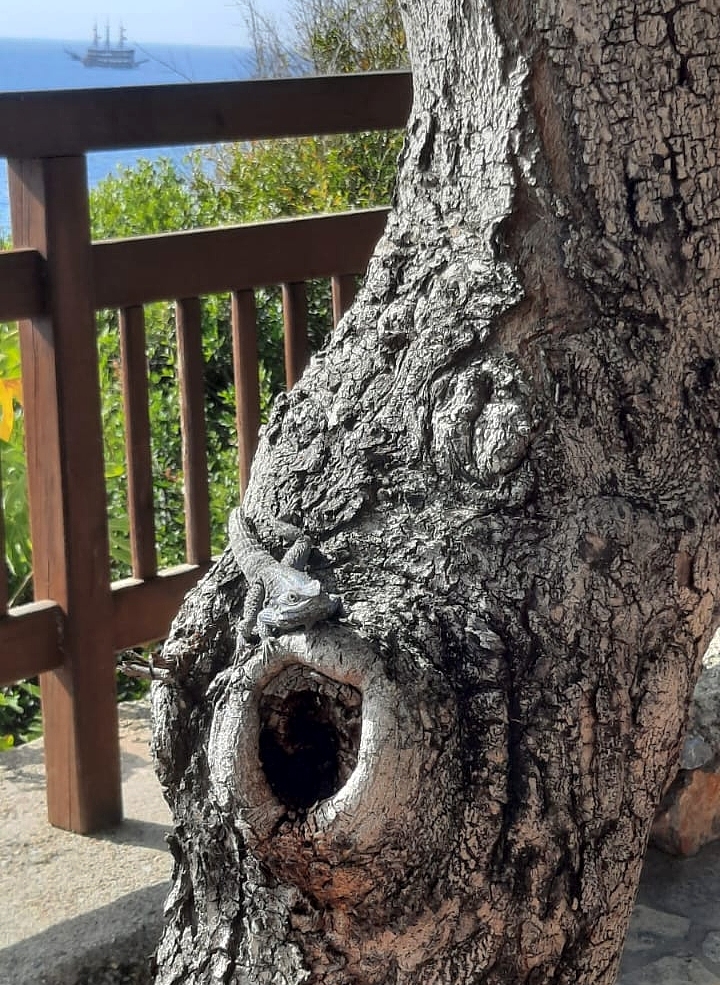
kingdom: Animalia
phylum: Chordata
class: Squamata
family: Agamidae
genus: Stellagama
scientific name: Stellagama stellio
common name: Starred agama
